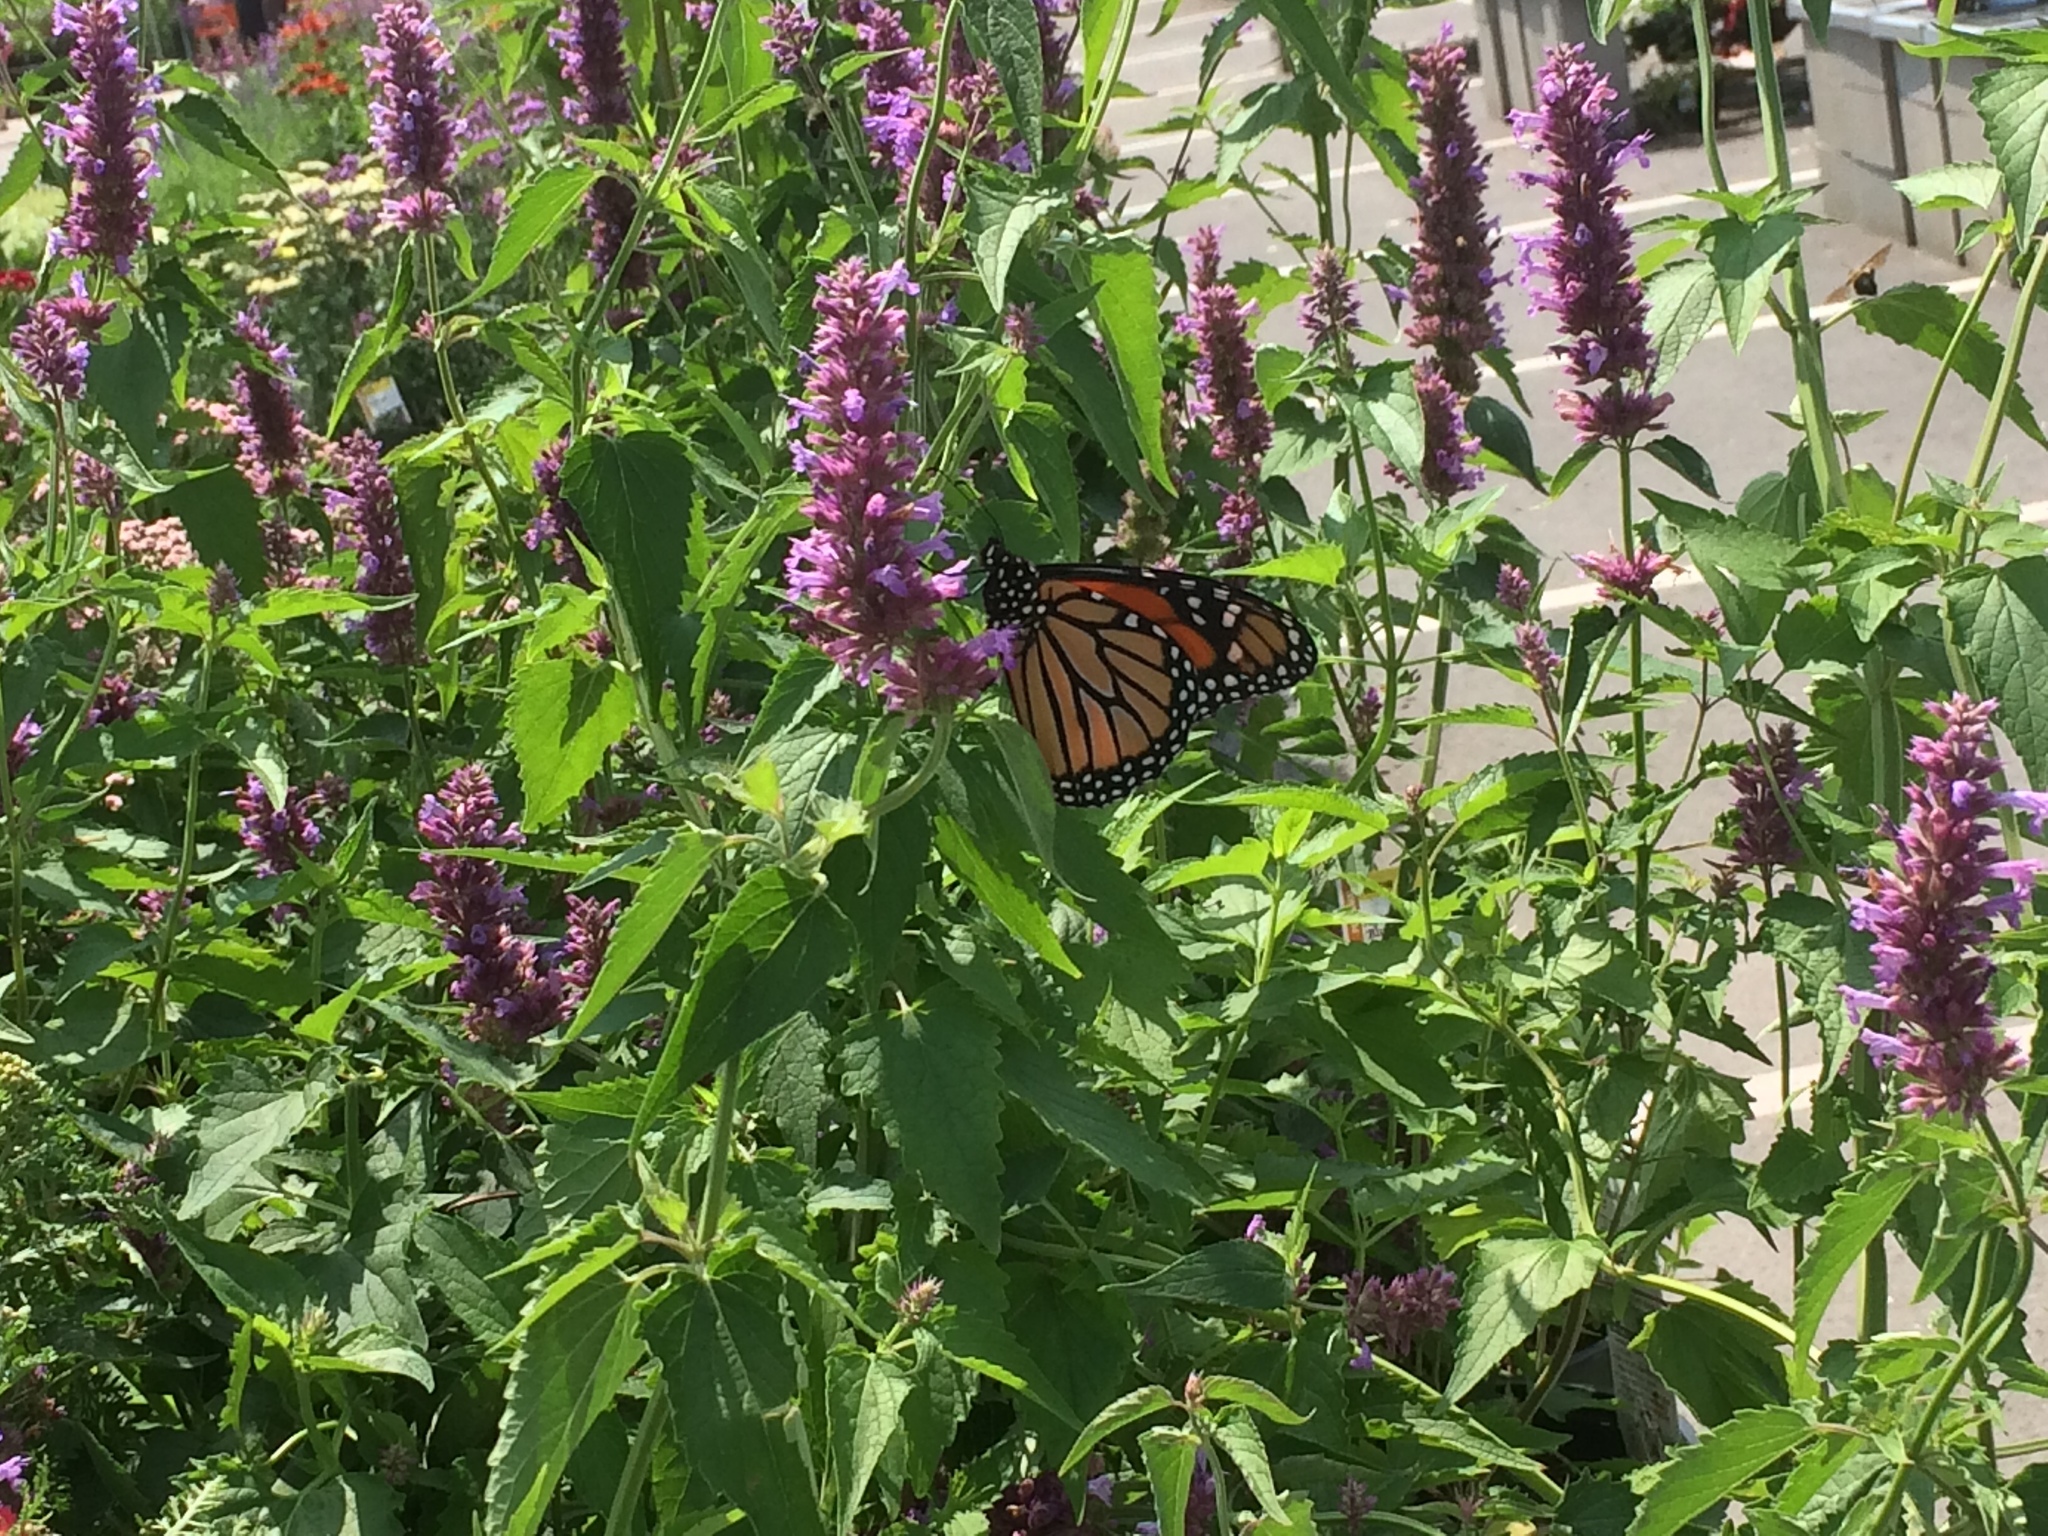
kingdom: Animalia
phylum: Arthropoda
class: Insecta
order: Lepidoptera
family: Nymphalidae
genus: Danaus
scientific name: Danaus plexippus
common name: Monarch
